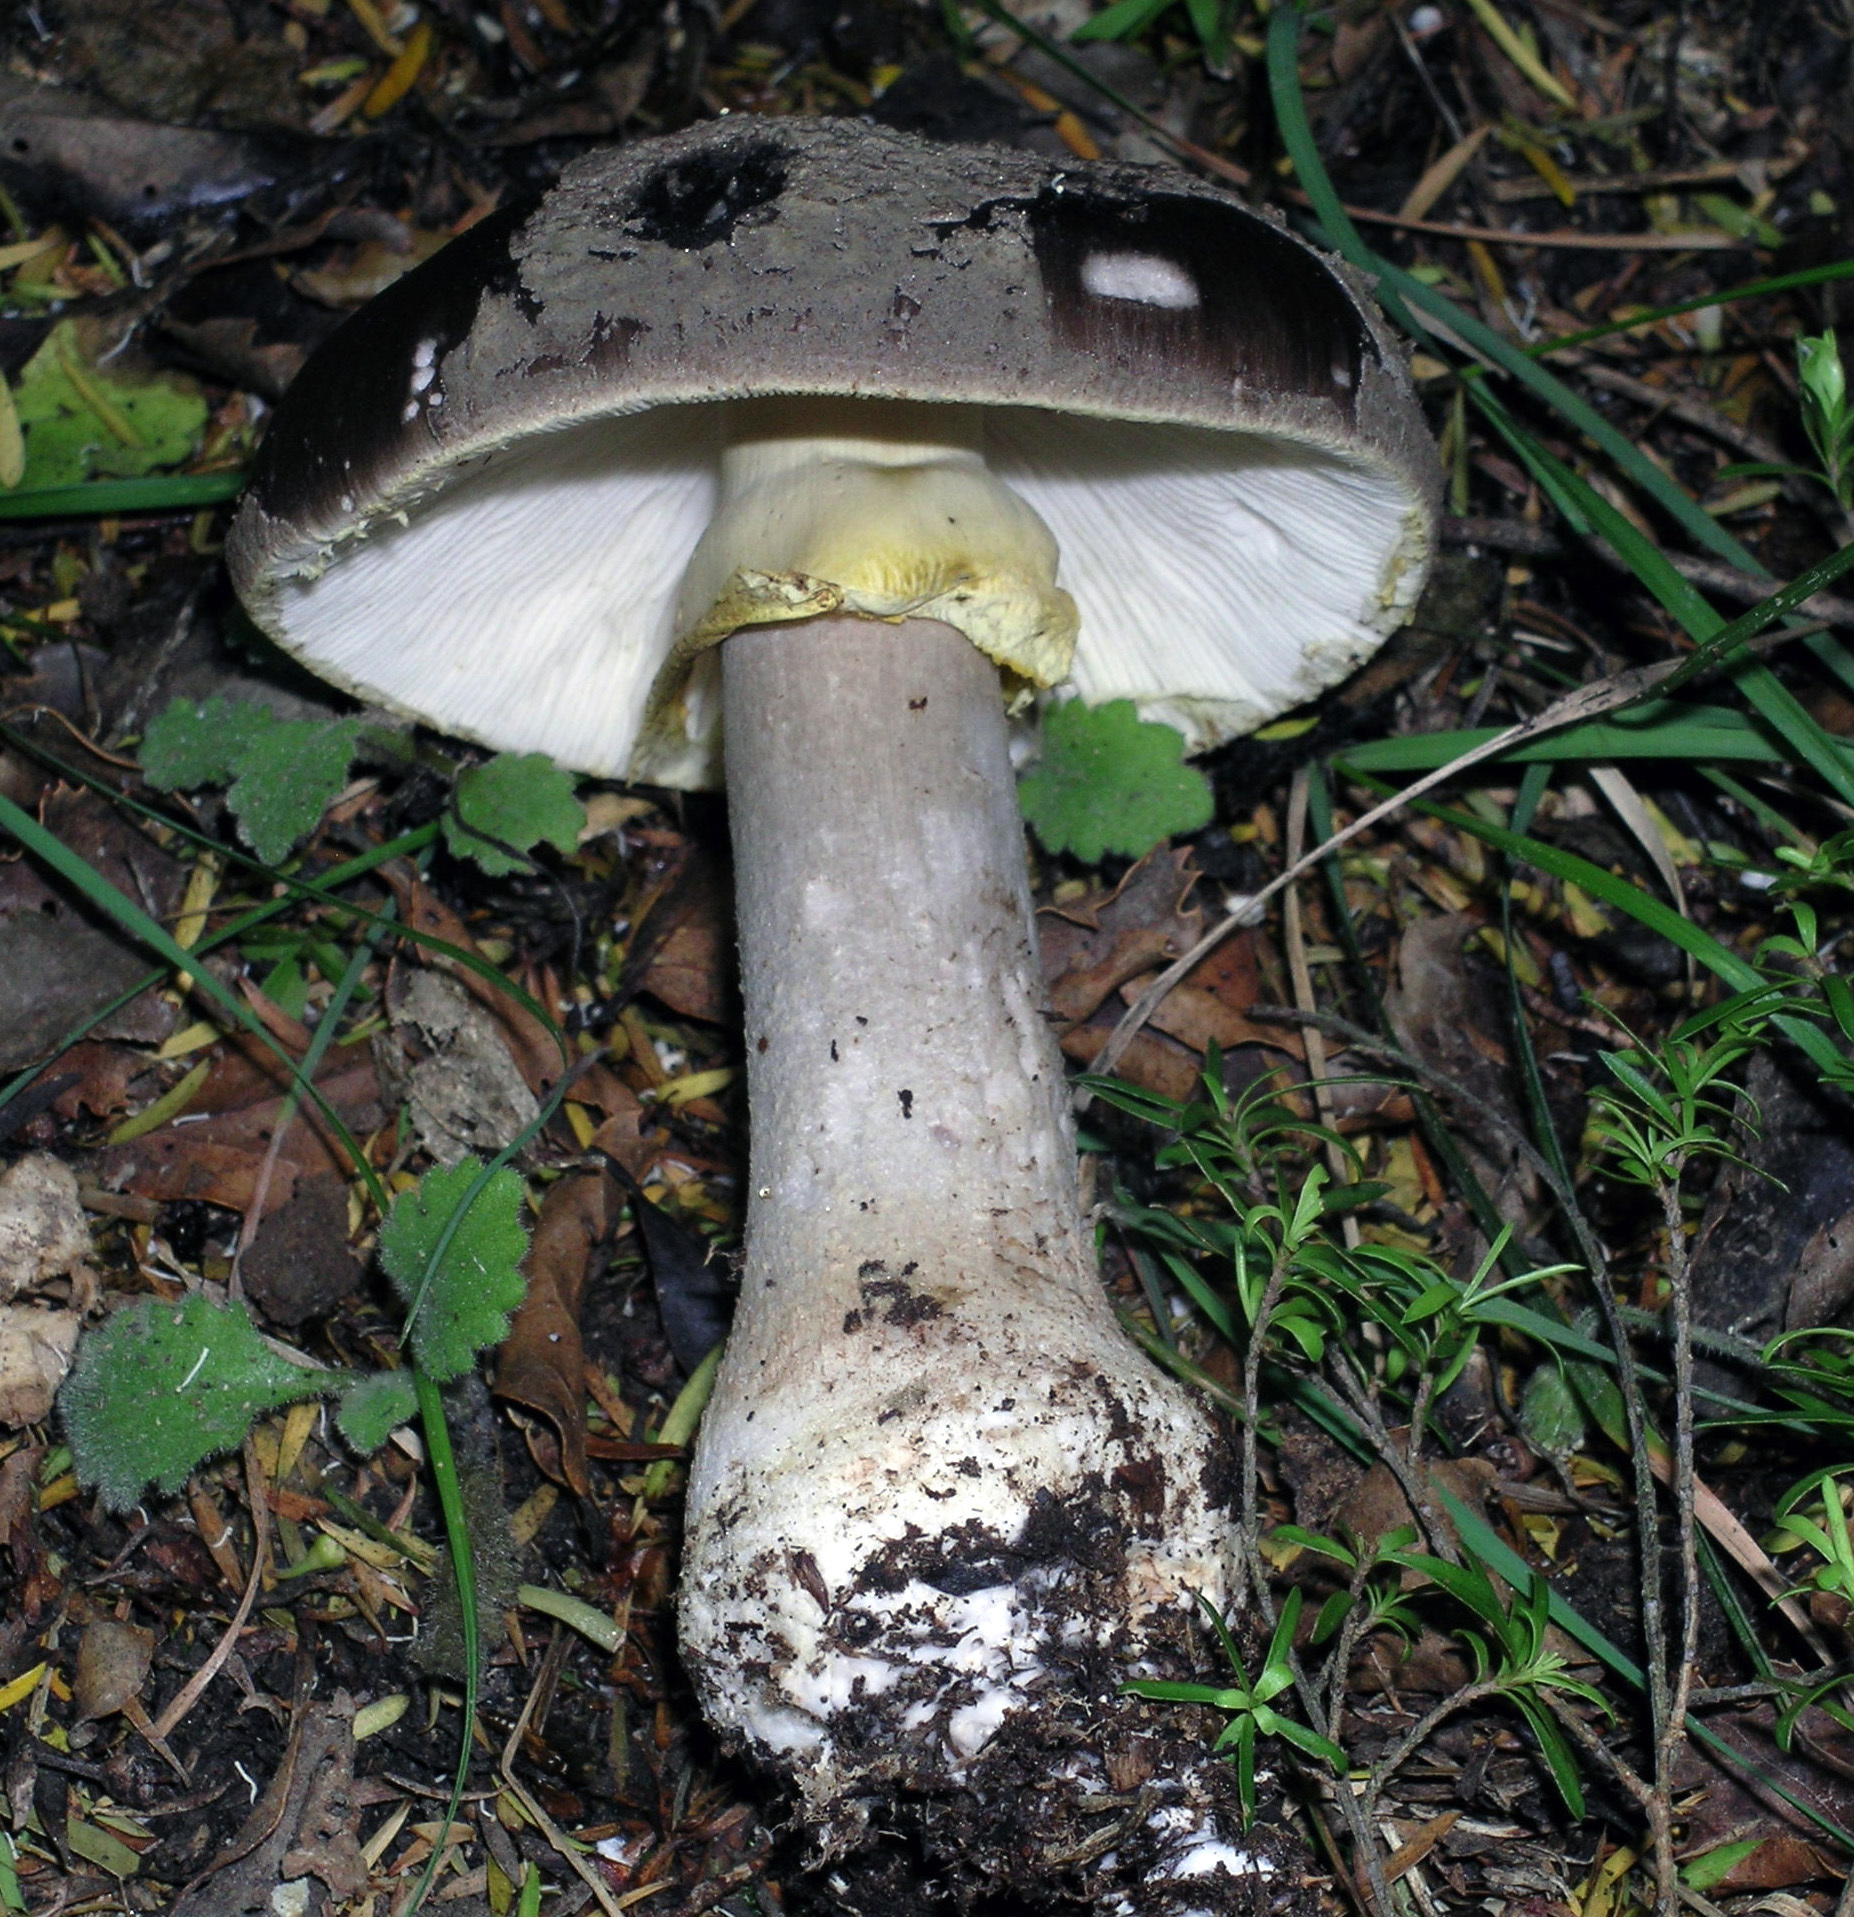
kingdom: Fungi
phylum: Basidiomycota
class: Agaricomycetes
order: Agaricales
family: Amanitaceae
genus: Amanita
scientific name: Amanita nothofagi
